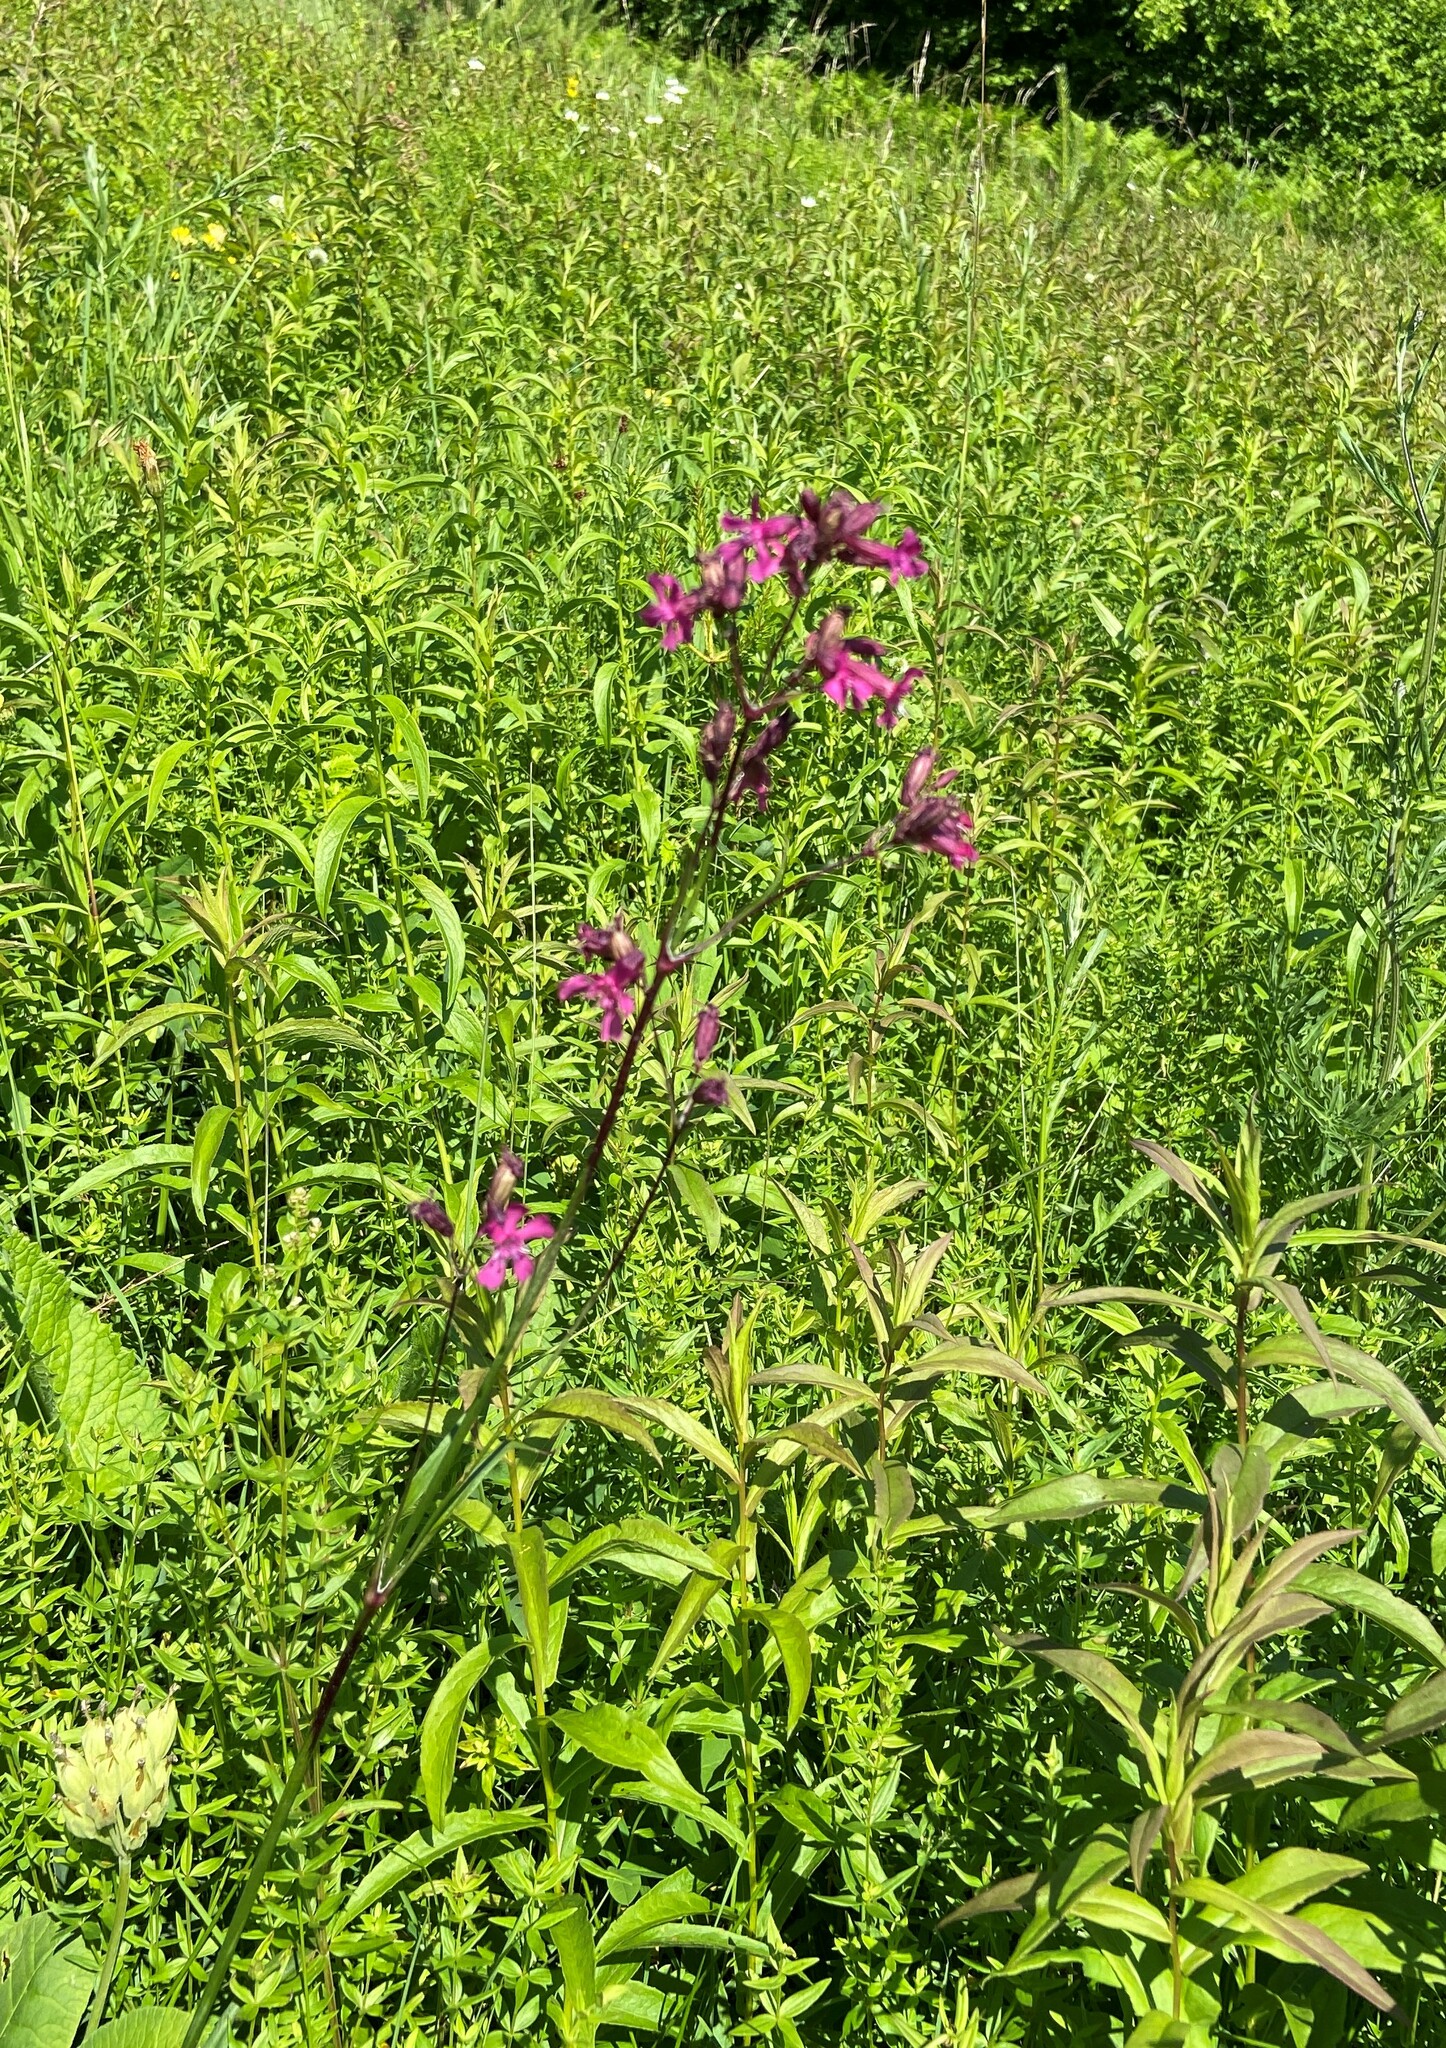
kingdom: Plantae
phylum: Tracheophyta
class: Magnoliopsida
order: Caryophyllales
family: Caryophyllaceae
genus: Viscaria
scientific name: Viscaria vulgaris
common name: Clammy campion
